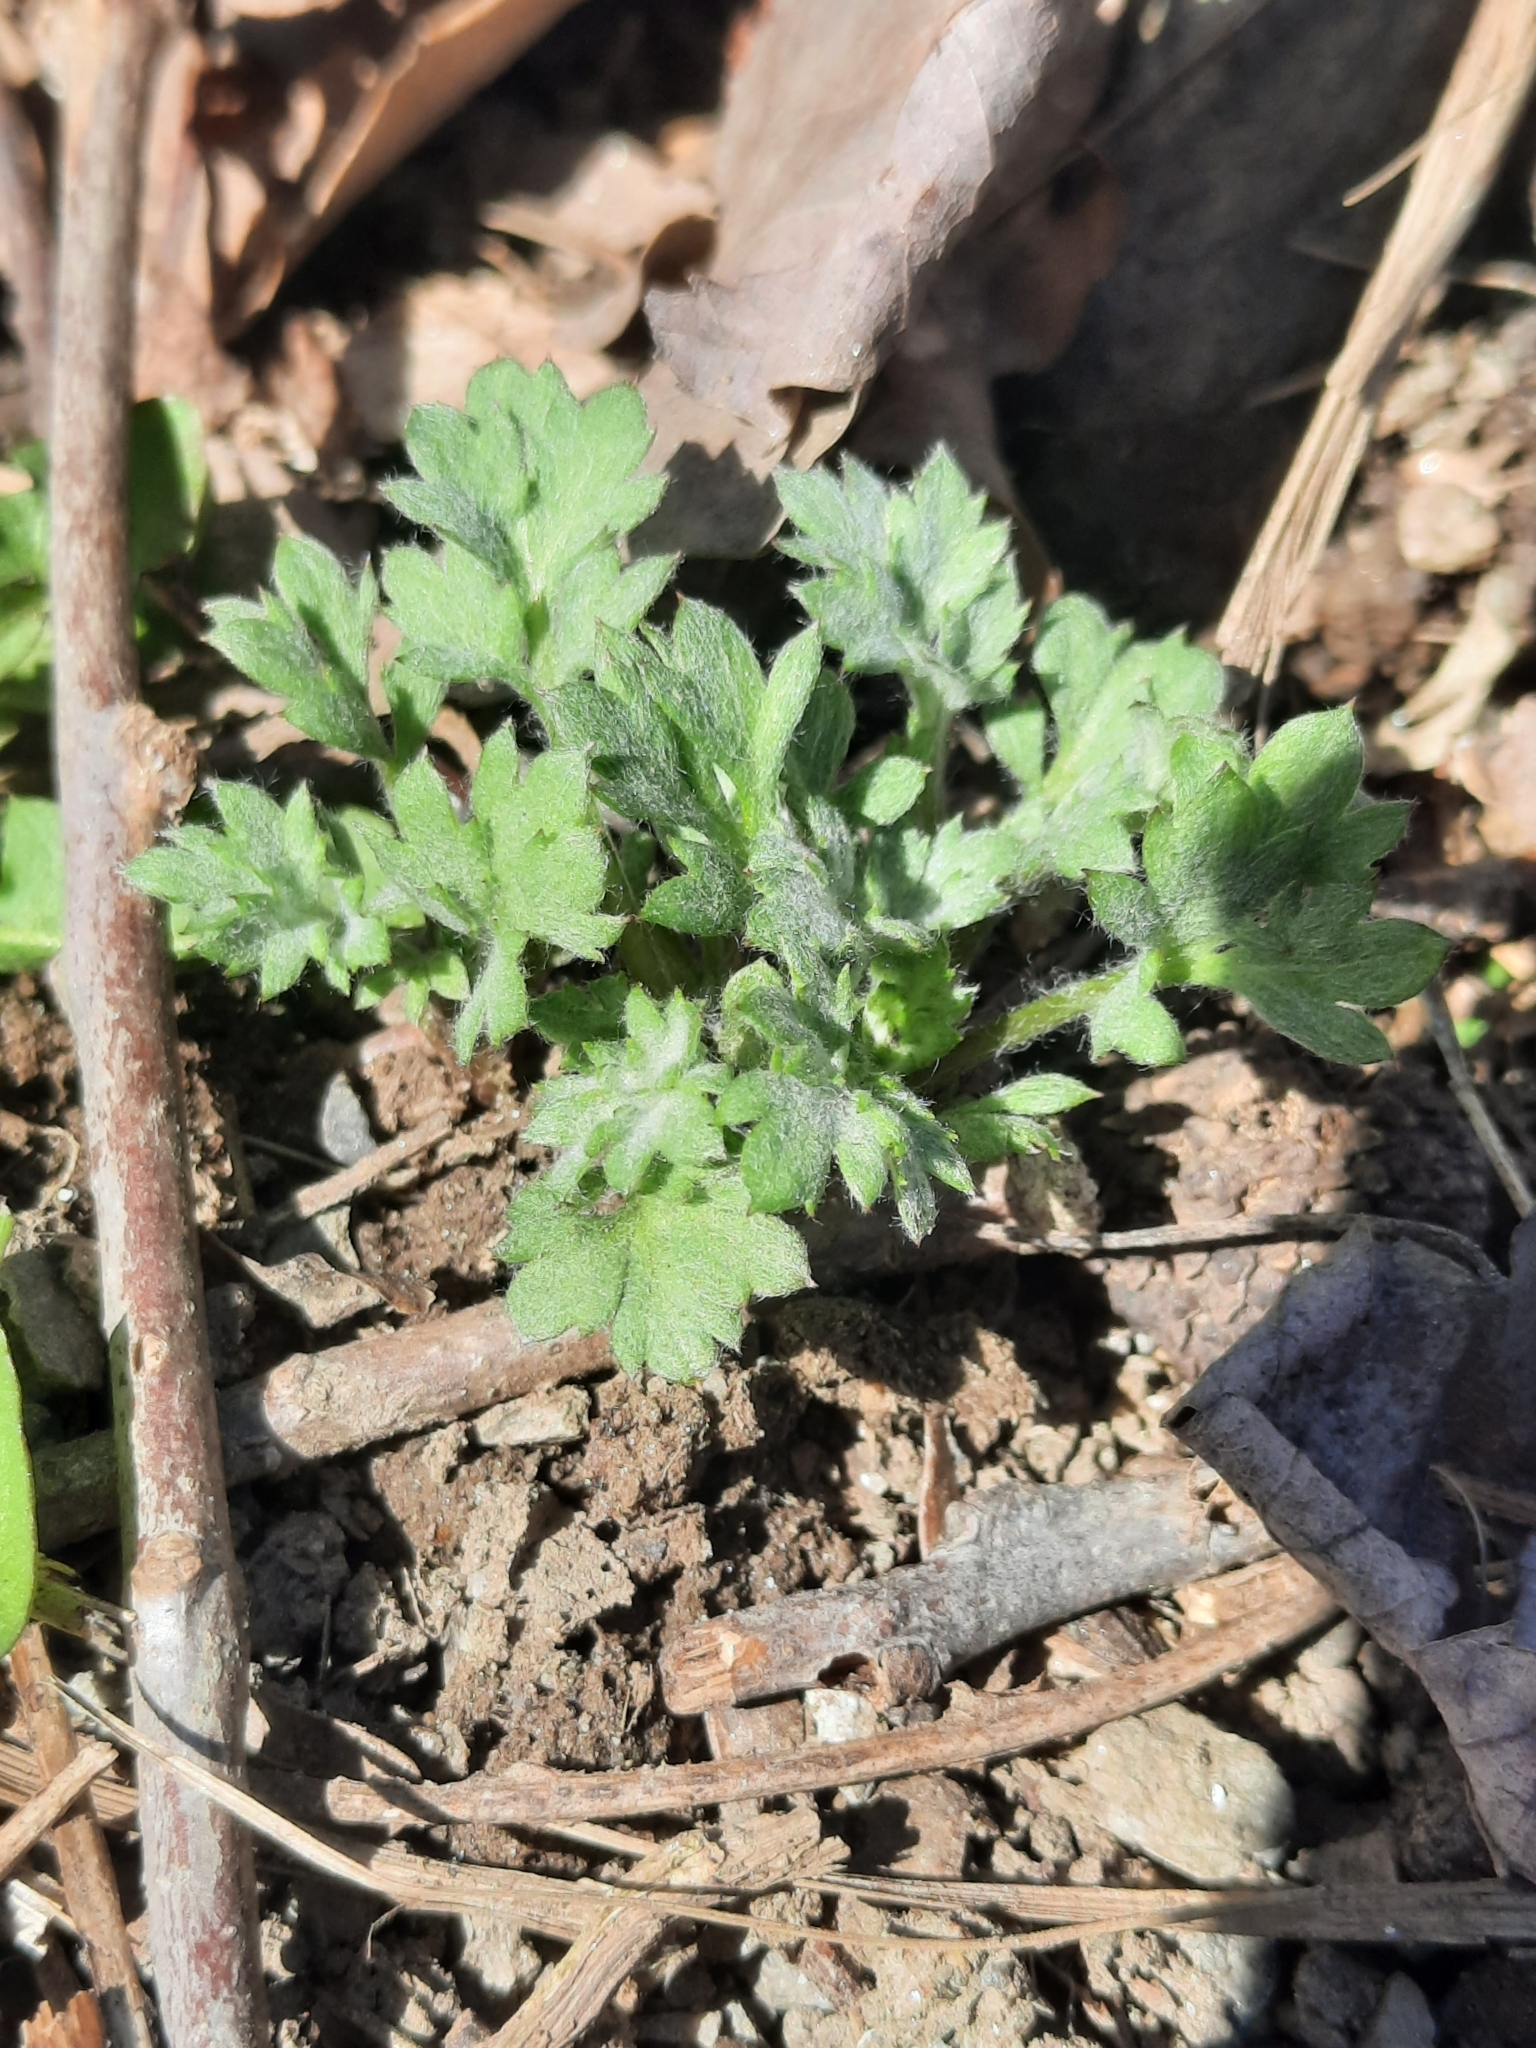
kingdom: Plantae
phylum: Tracheophyta
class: Magnoliopsida
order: Asterales
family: Asteraceae
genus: Artemisia
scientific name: Artemisia vulgaris
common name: Mugwort
